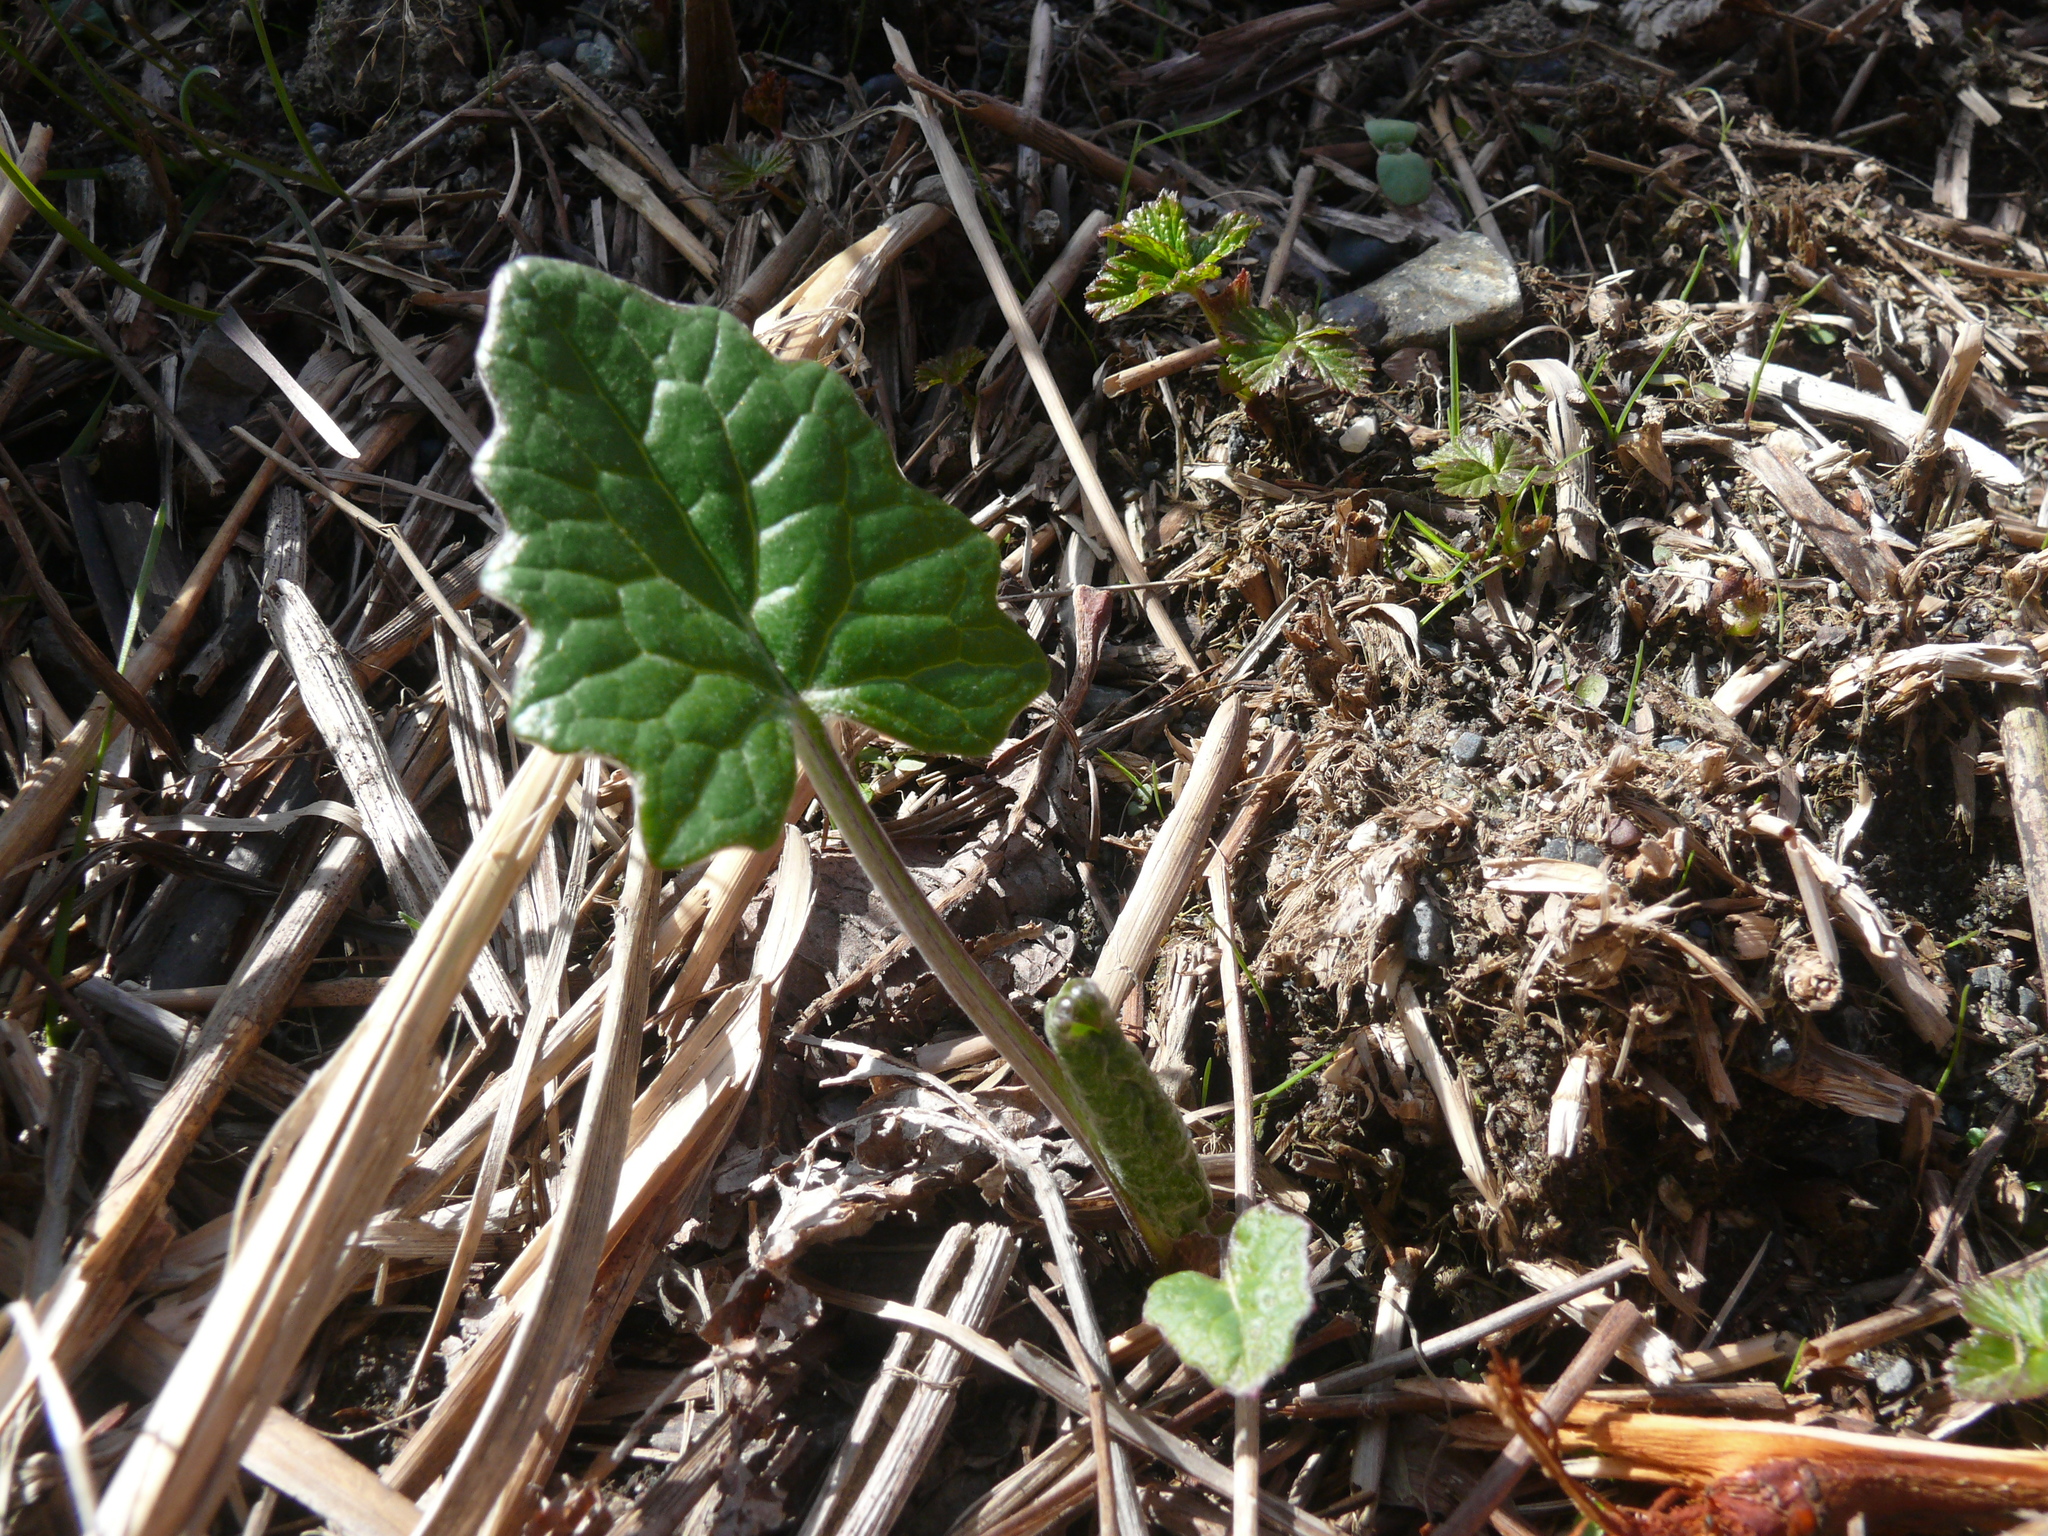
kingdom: Plantae
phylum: Tracheophyta
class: Magnoliopsida
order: Asterales
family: Asteraceae
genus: Petasites
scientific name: Petasites frigidus
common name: Arctic butterbur
